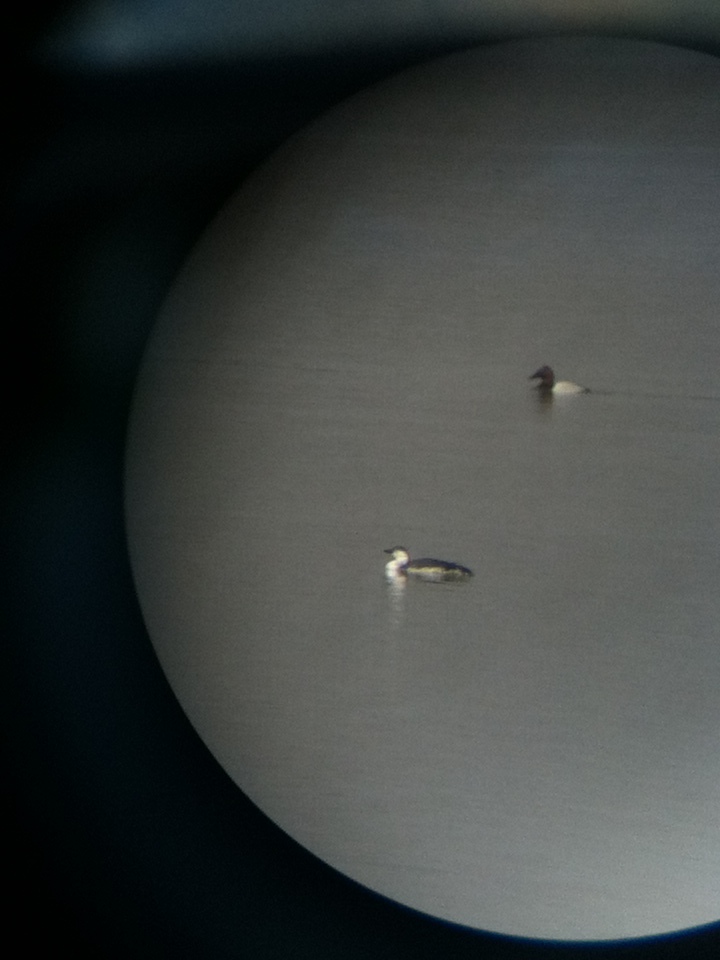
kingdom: Animalia
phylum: Chordata
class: Aves
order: Gaviiformes
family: Gaviidae
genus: Gavia
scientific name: Gavia stellata
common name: Red-throated loon
